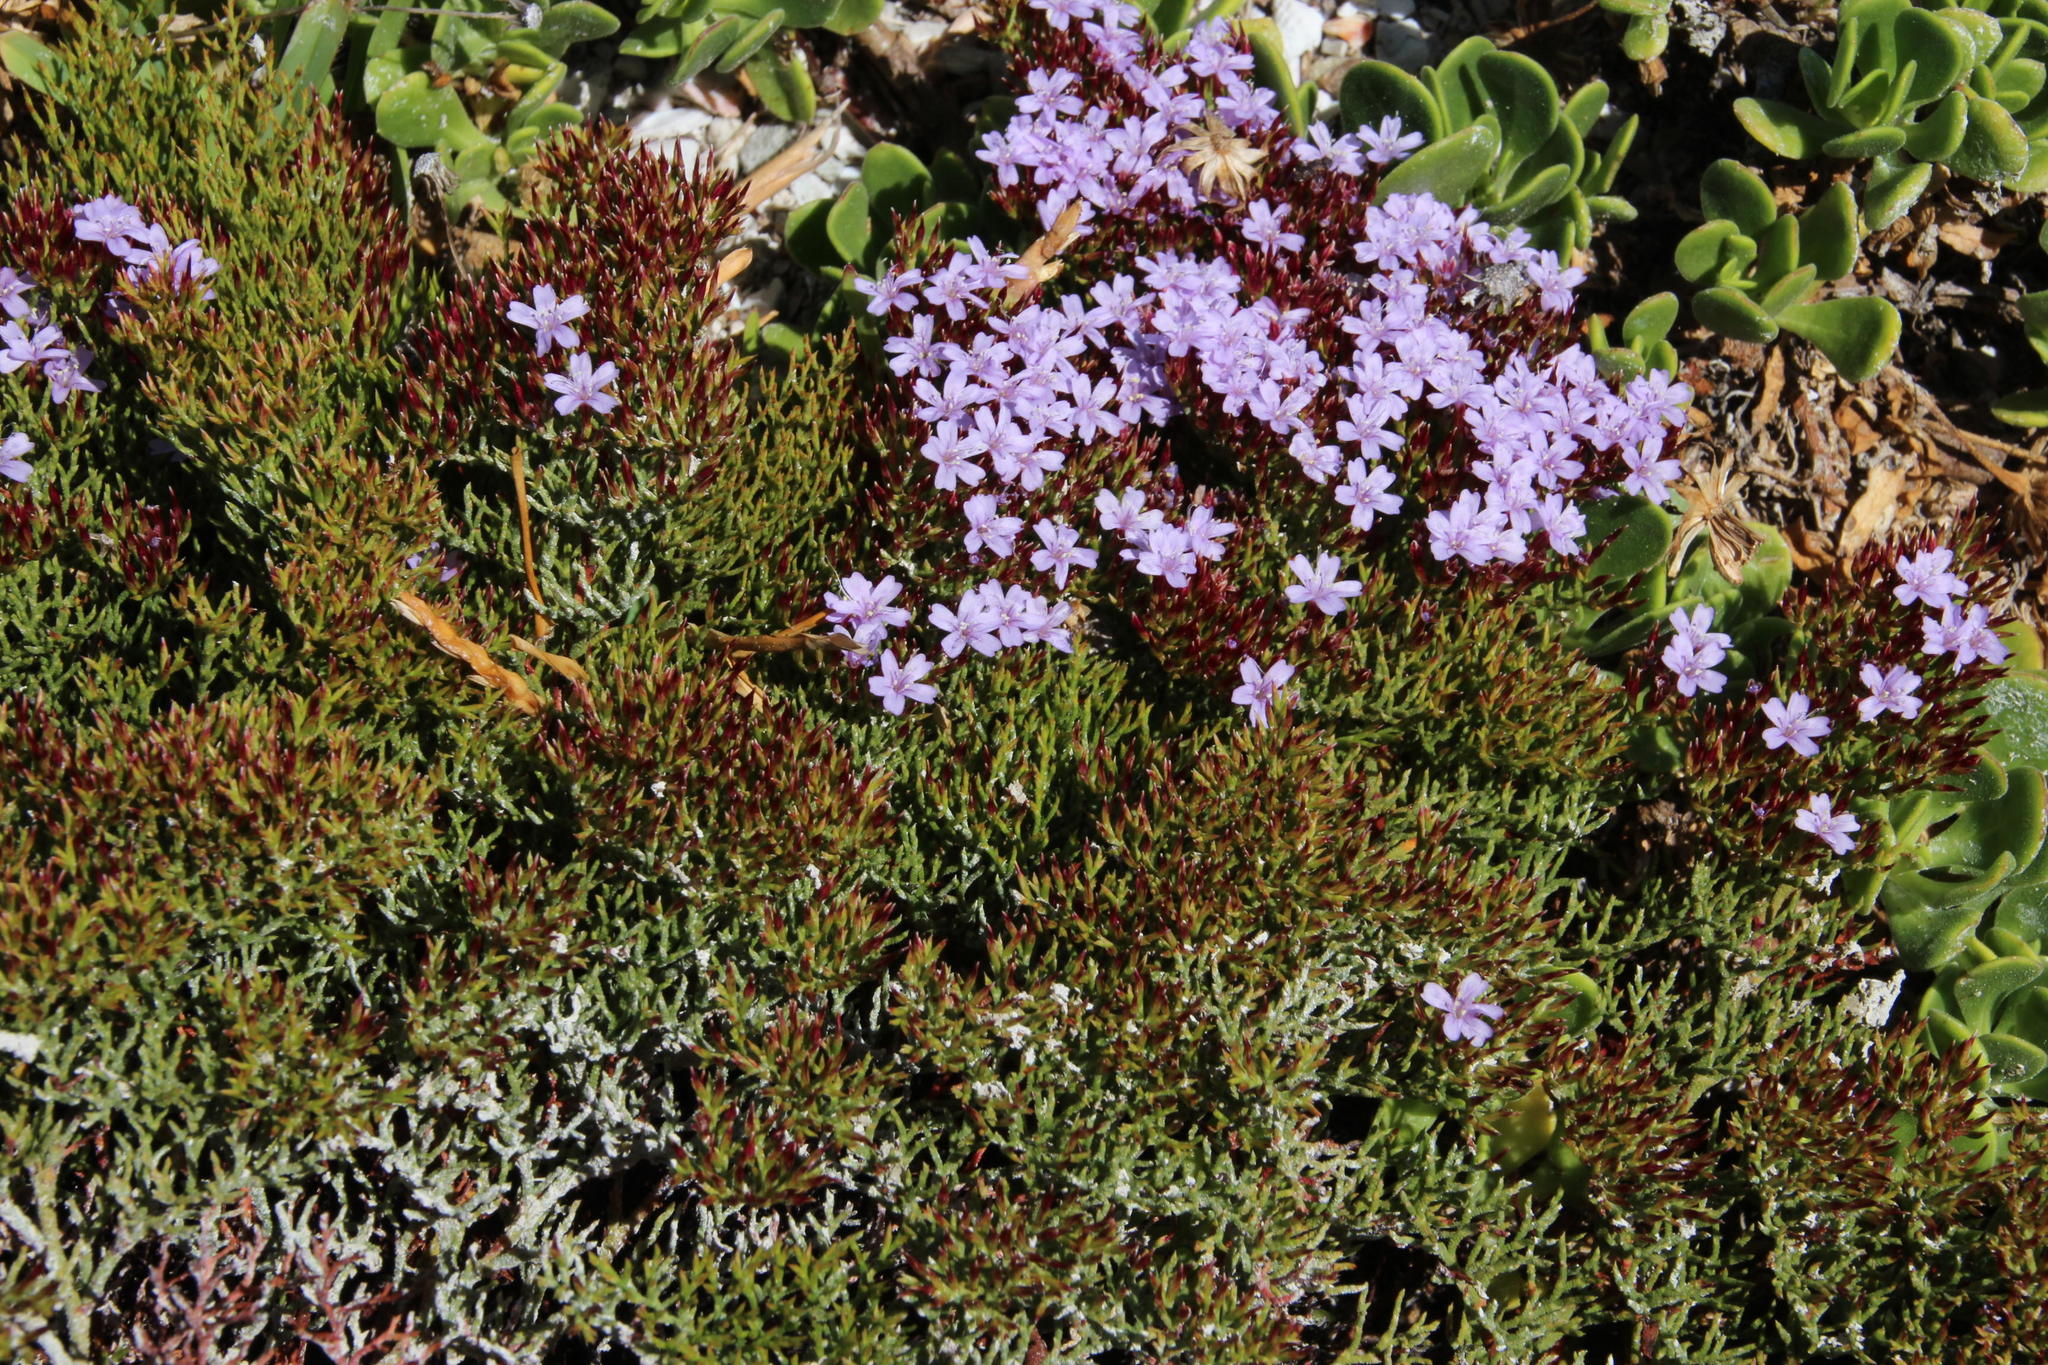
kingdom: Plantae
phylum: Tracheophyta
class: Magnoliopsida
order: Caryophyllales
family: Plumbaginaceae
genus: Limonium
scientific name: Limonium scabrum
